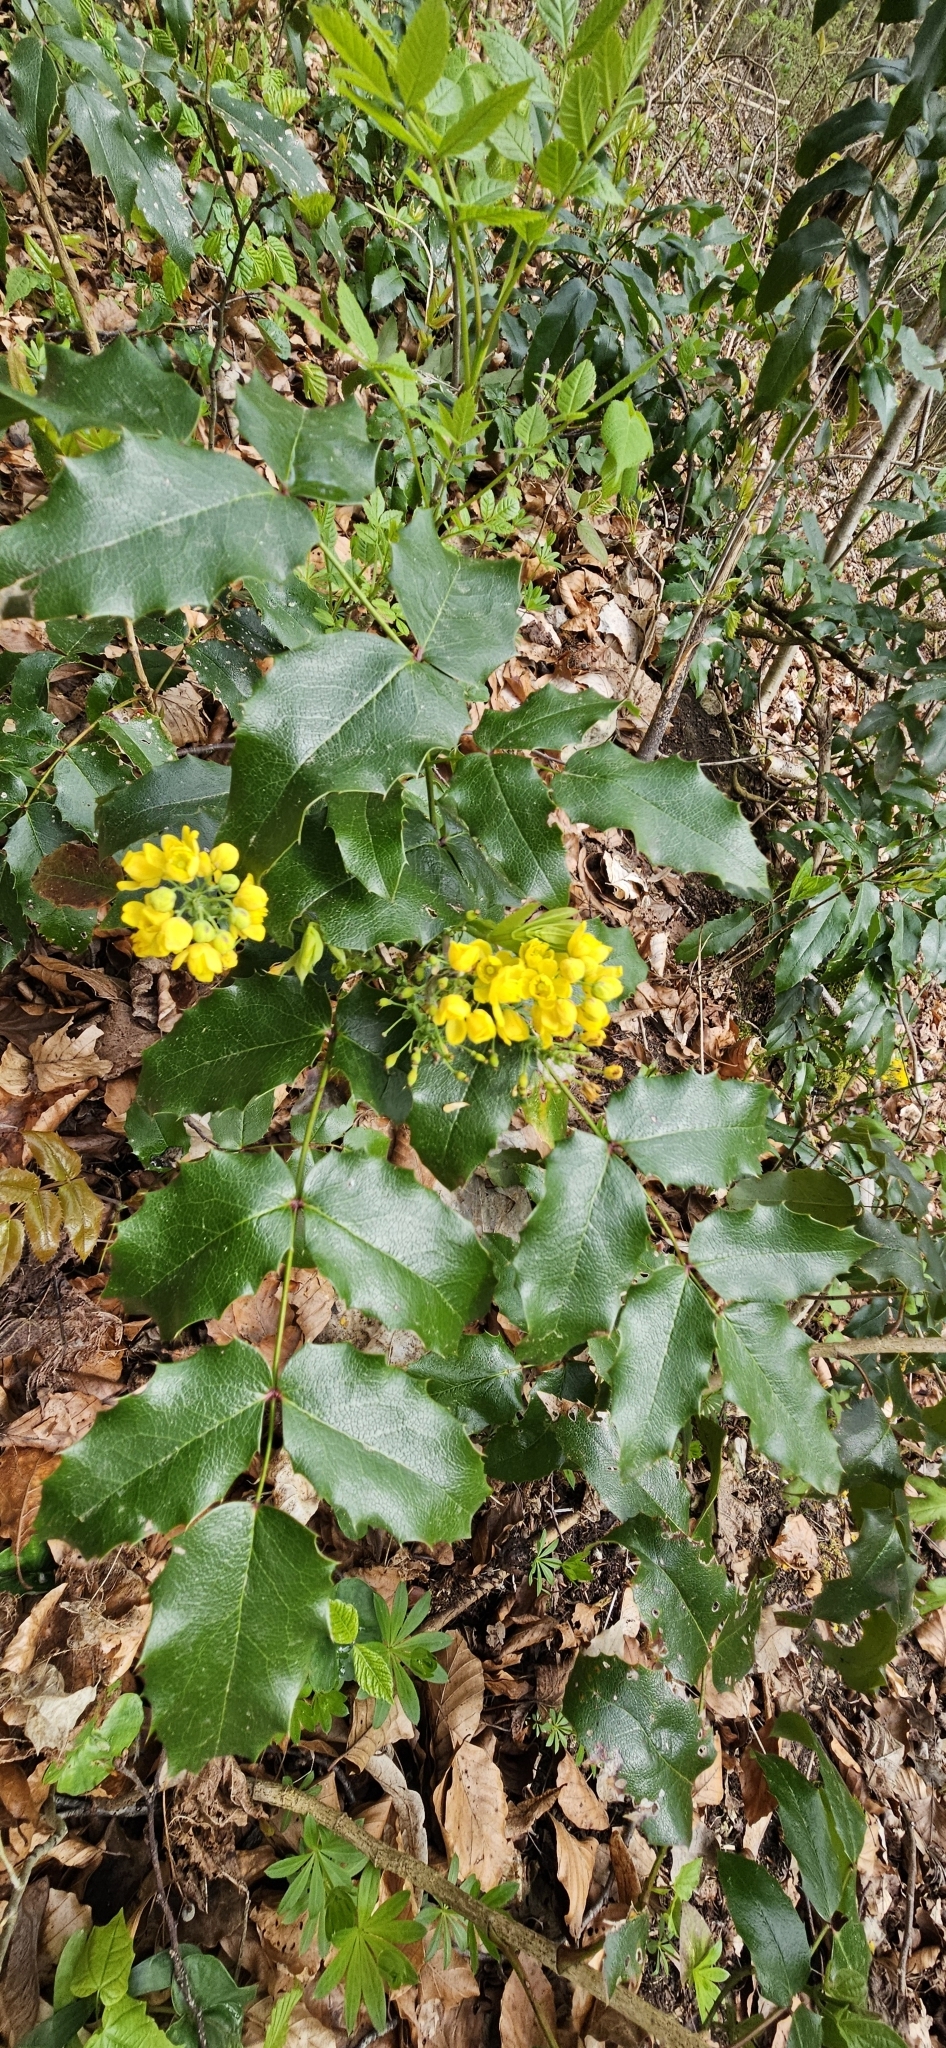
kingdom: Plantae
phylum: Tracheophyta
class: Magnoliopsida
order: Ranunculales
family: Berberidaceae
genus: Mahonia
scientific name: Mahonia aquifolium
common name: Oregon-grape
